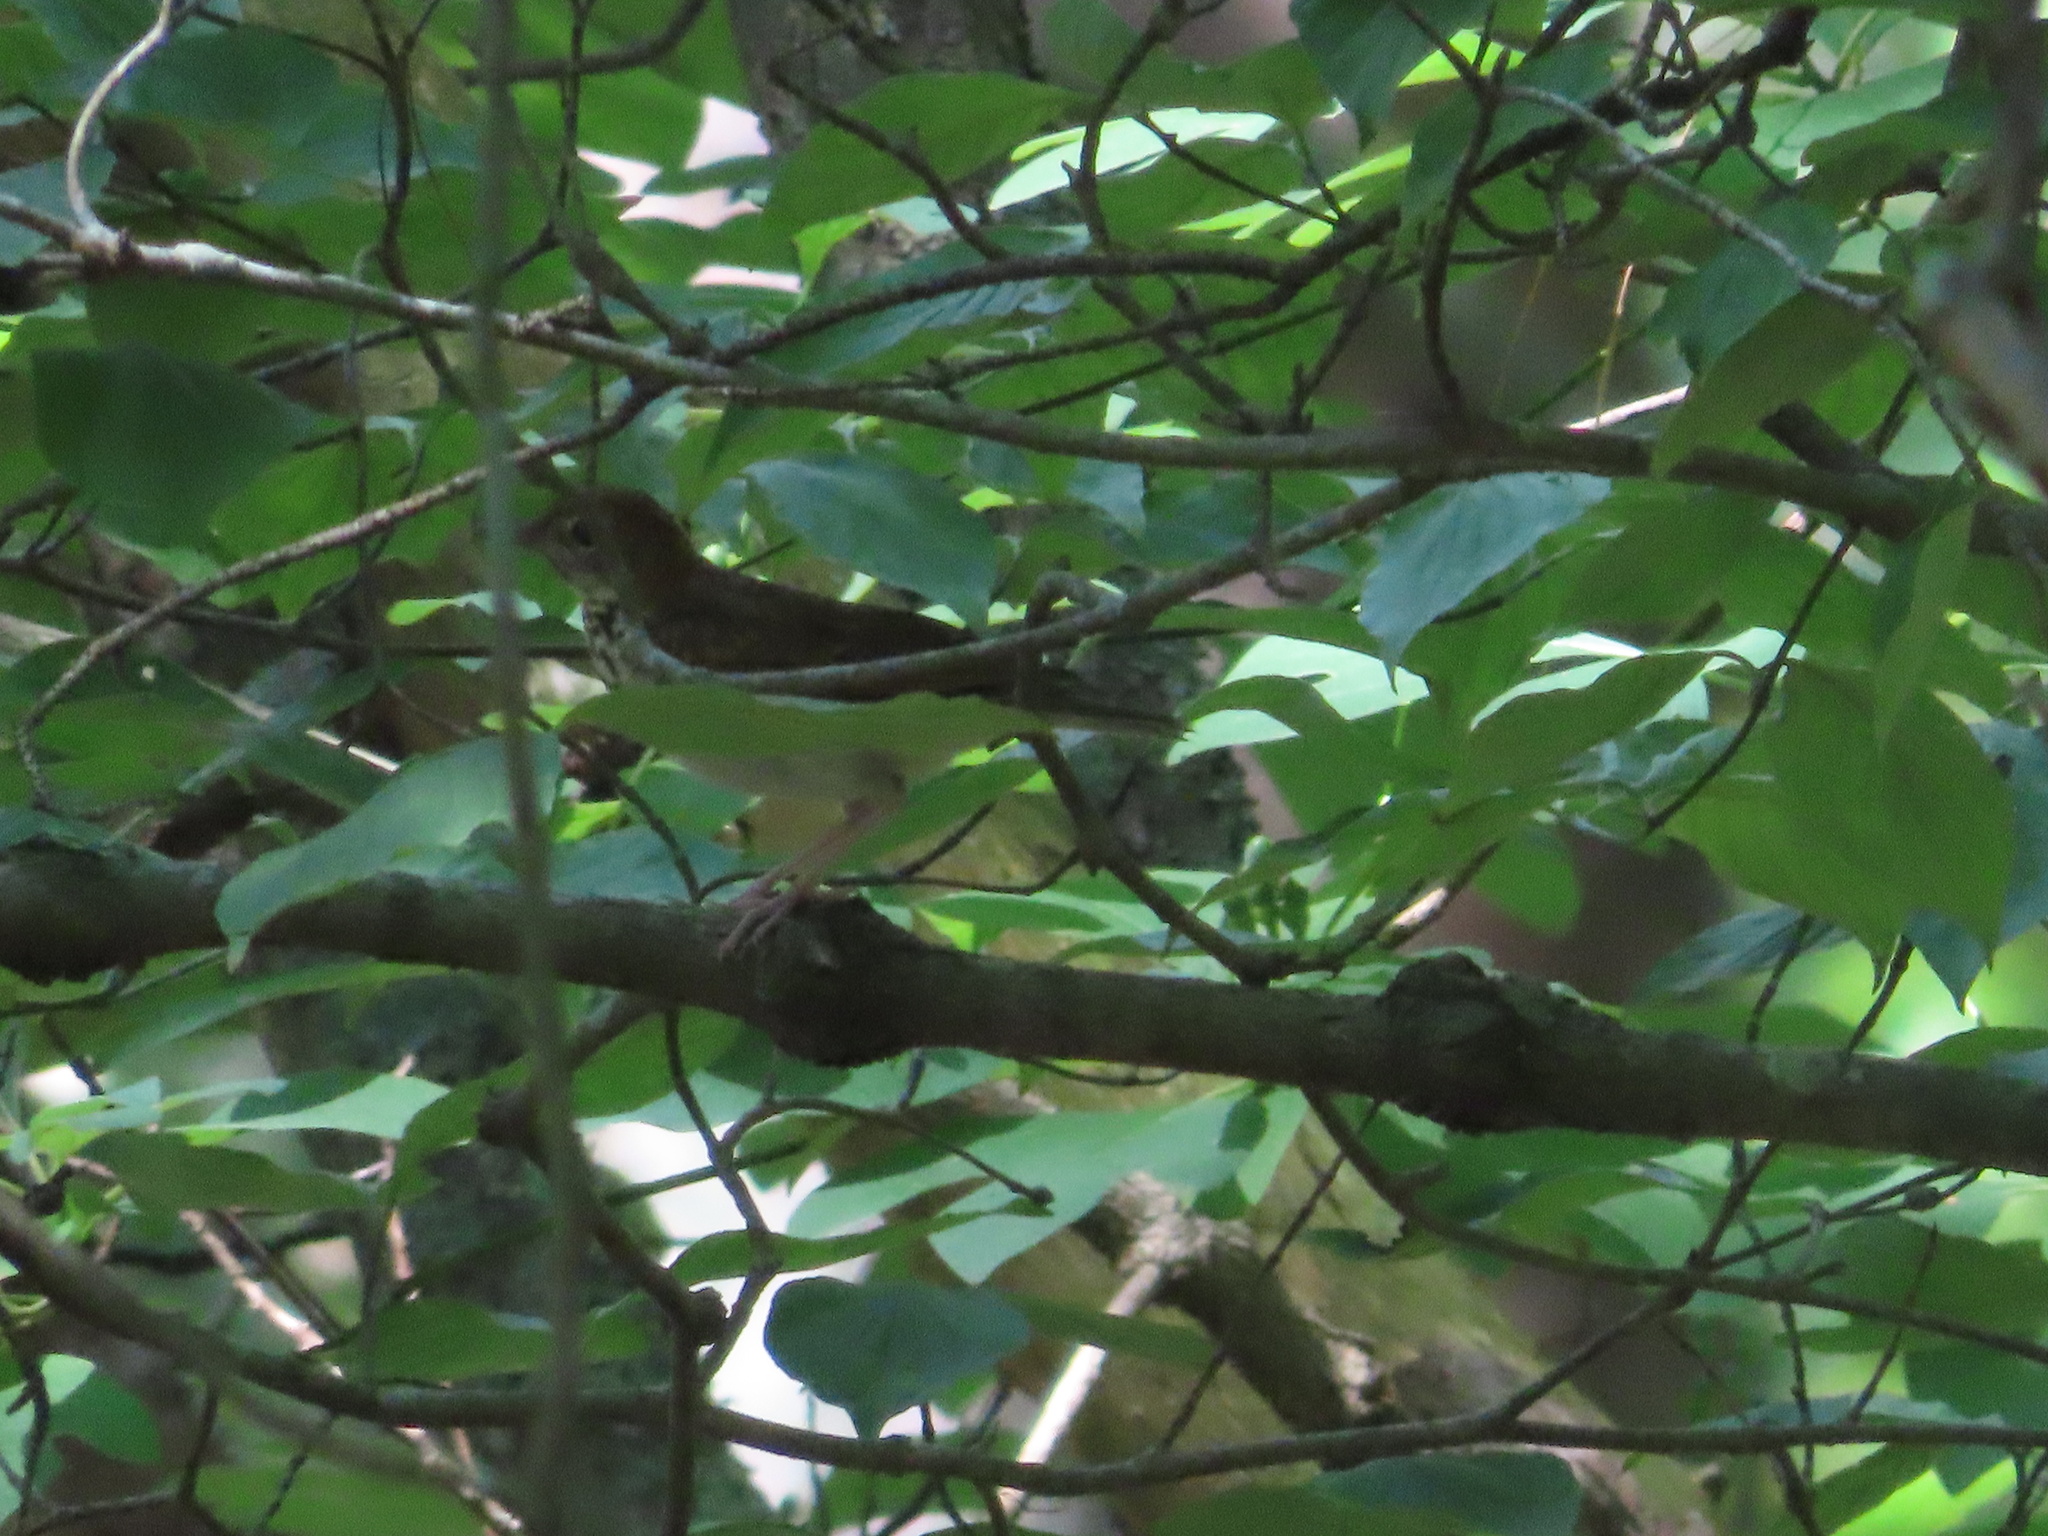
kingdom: Animalia
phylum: Chordata
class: Aves
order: Passeriformes
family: Parulidae
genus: Seiurus
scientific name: Seiurus aurocapilla
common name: Ovenbird
